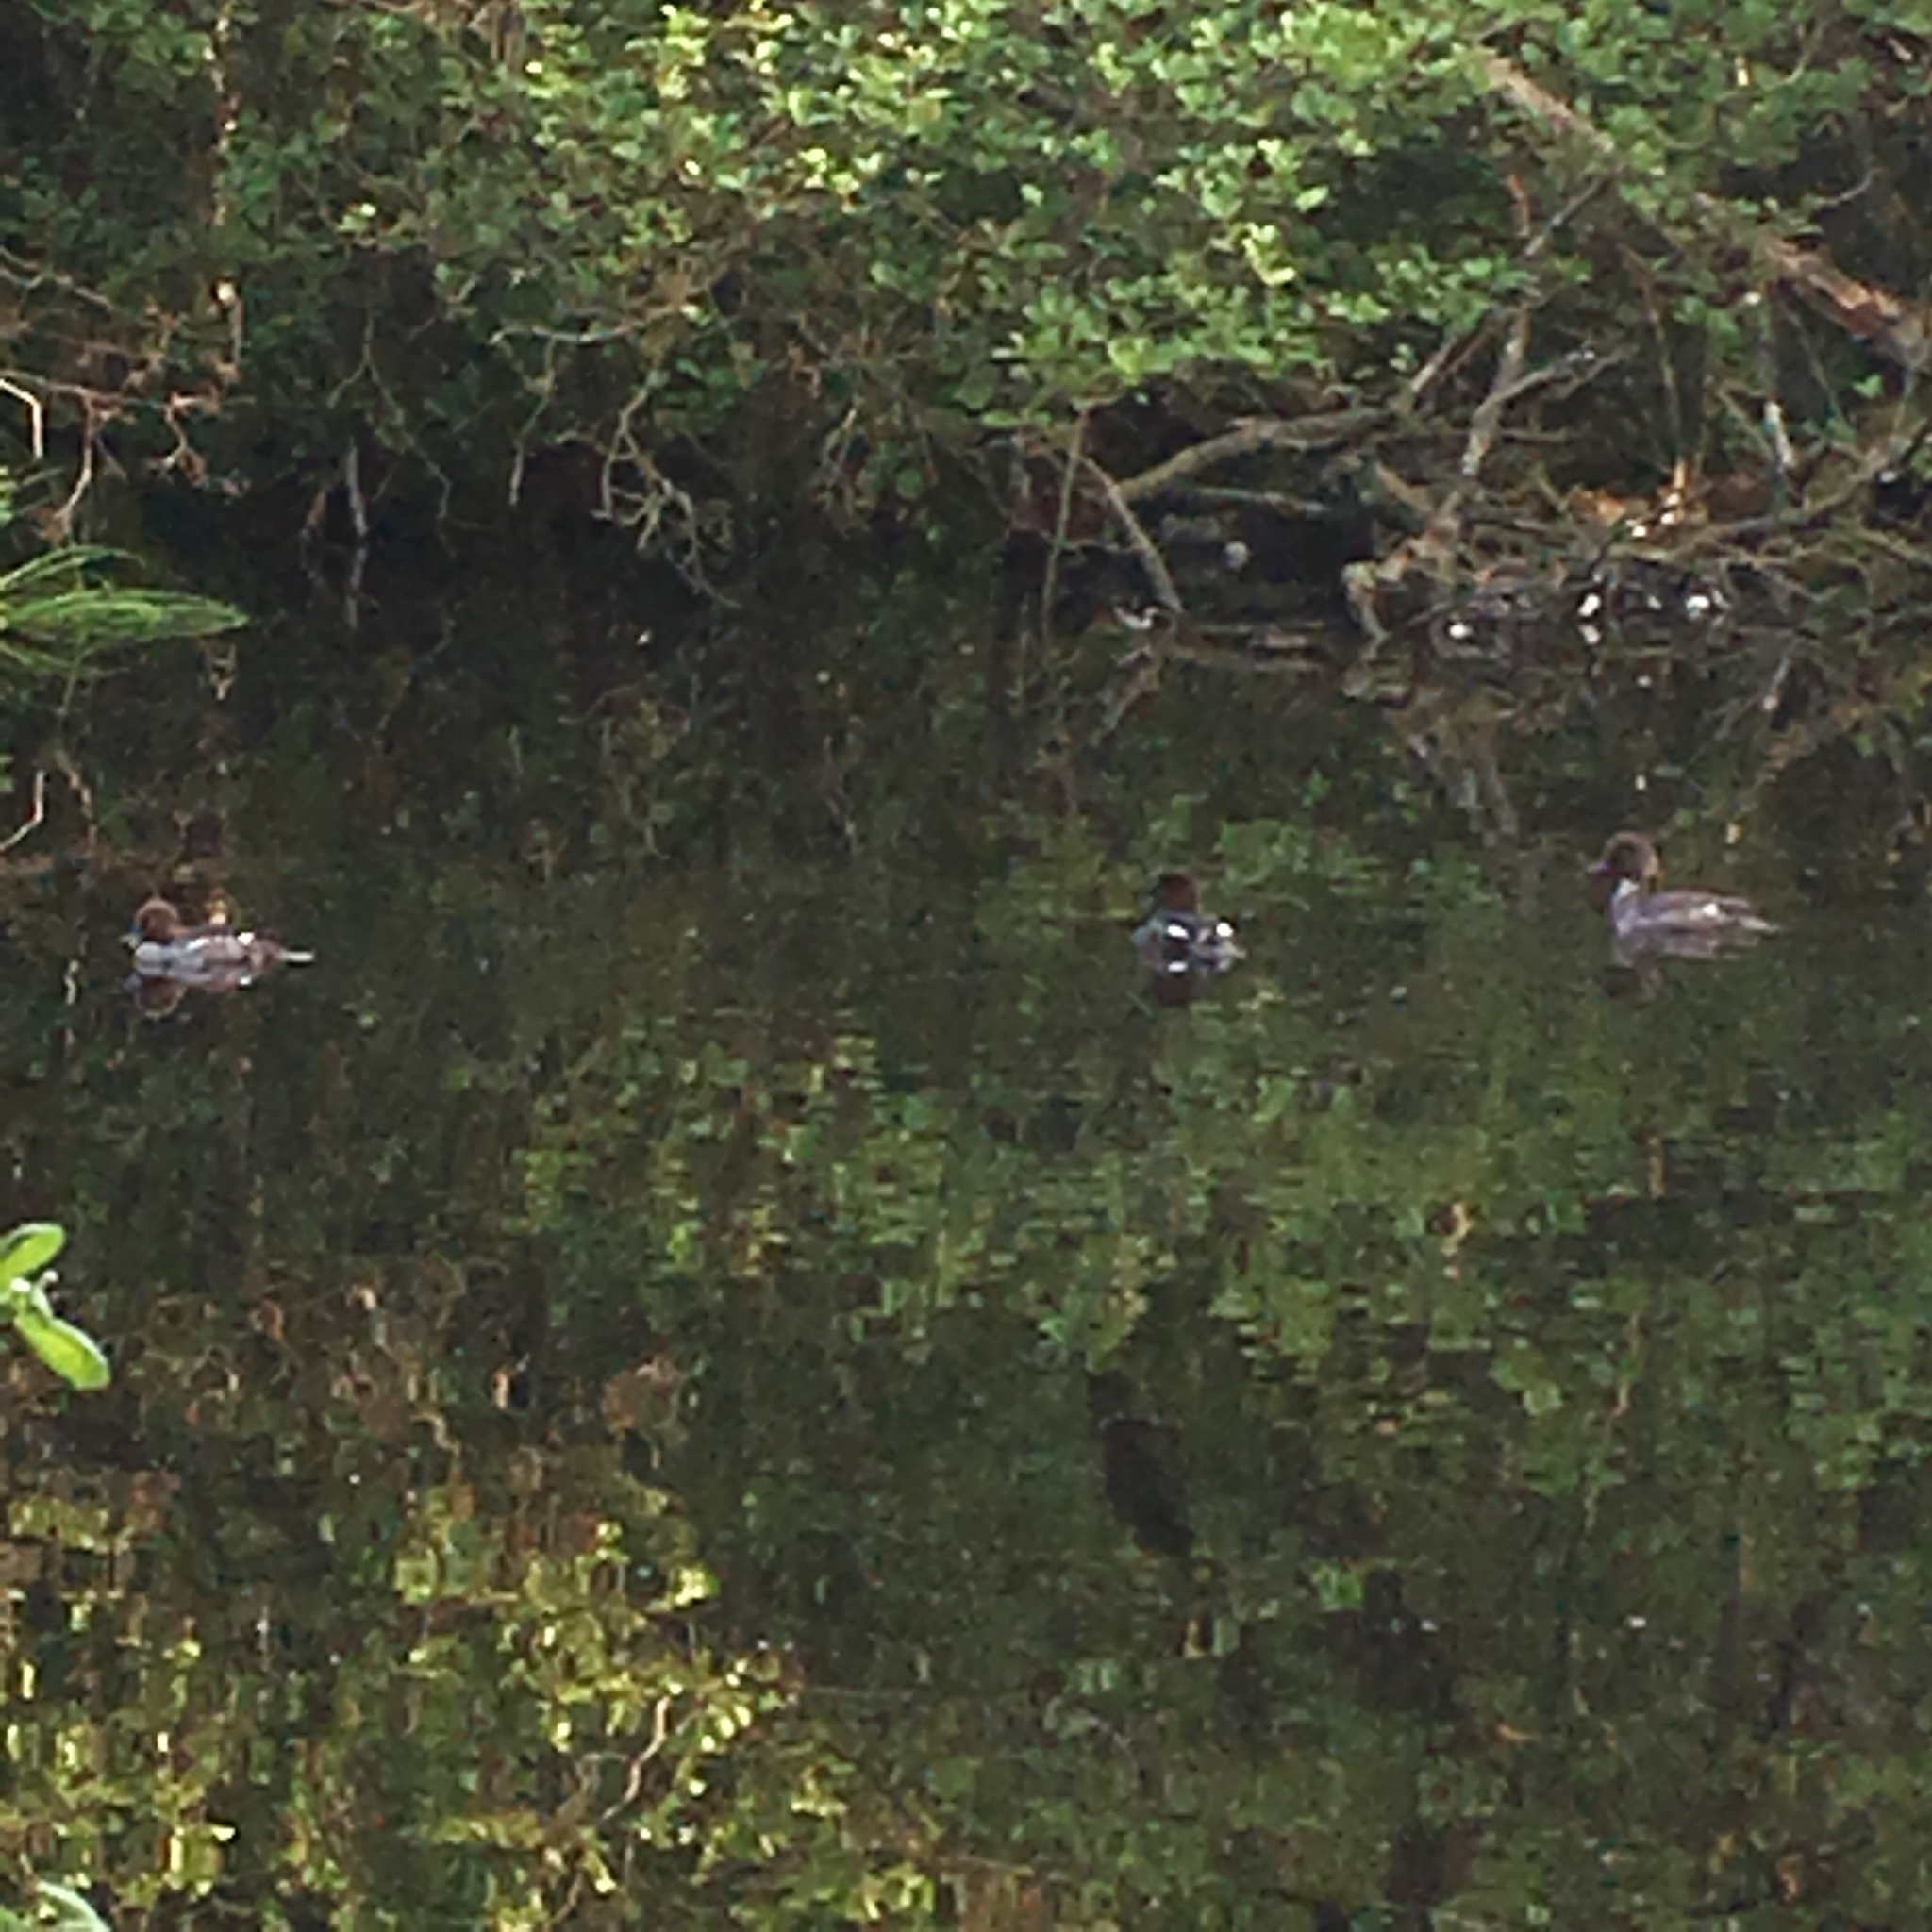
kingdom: Animalia
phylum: Chordata
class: Aves
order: Anseriformes
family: Anatidae
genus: Bucephala
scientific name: Bucephala clangula
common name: Common goldeneye
